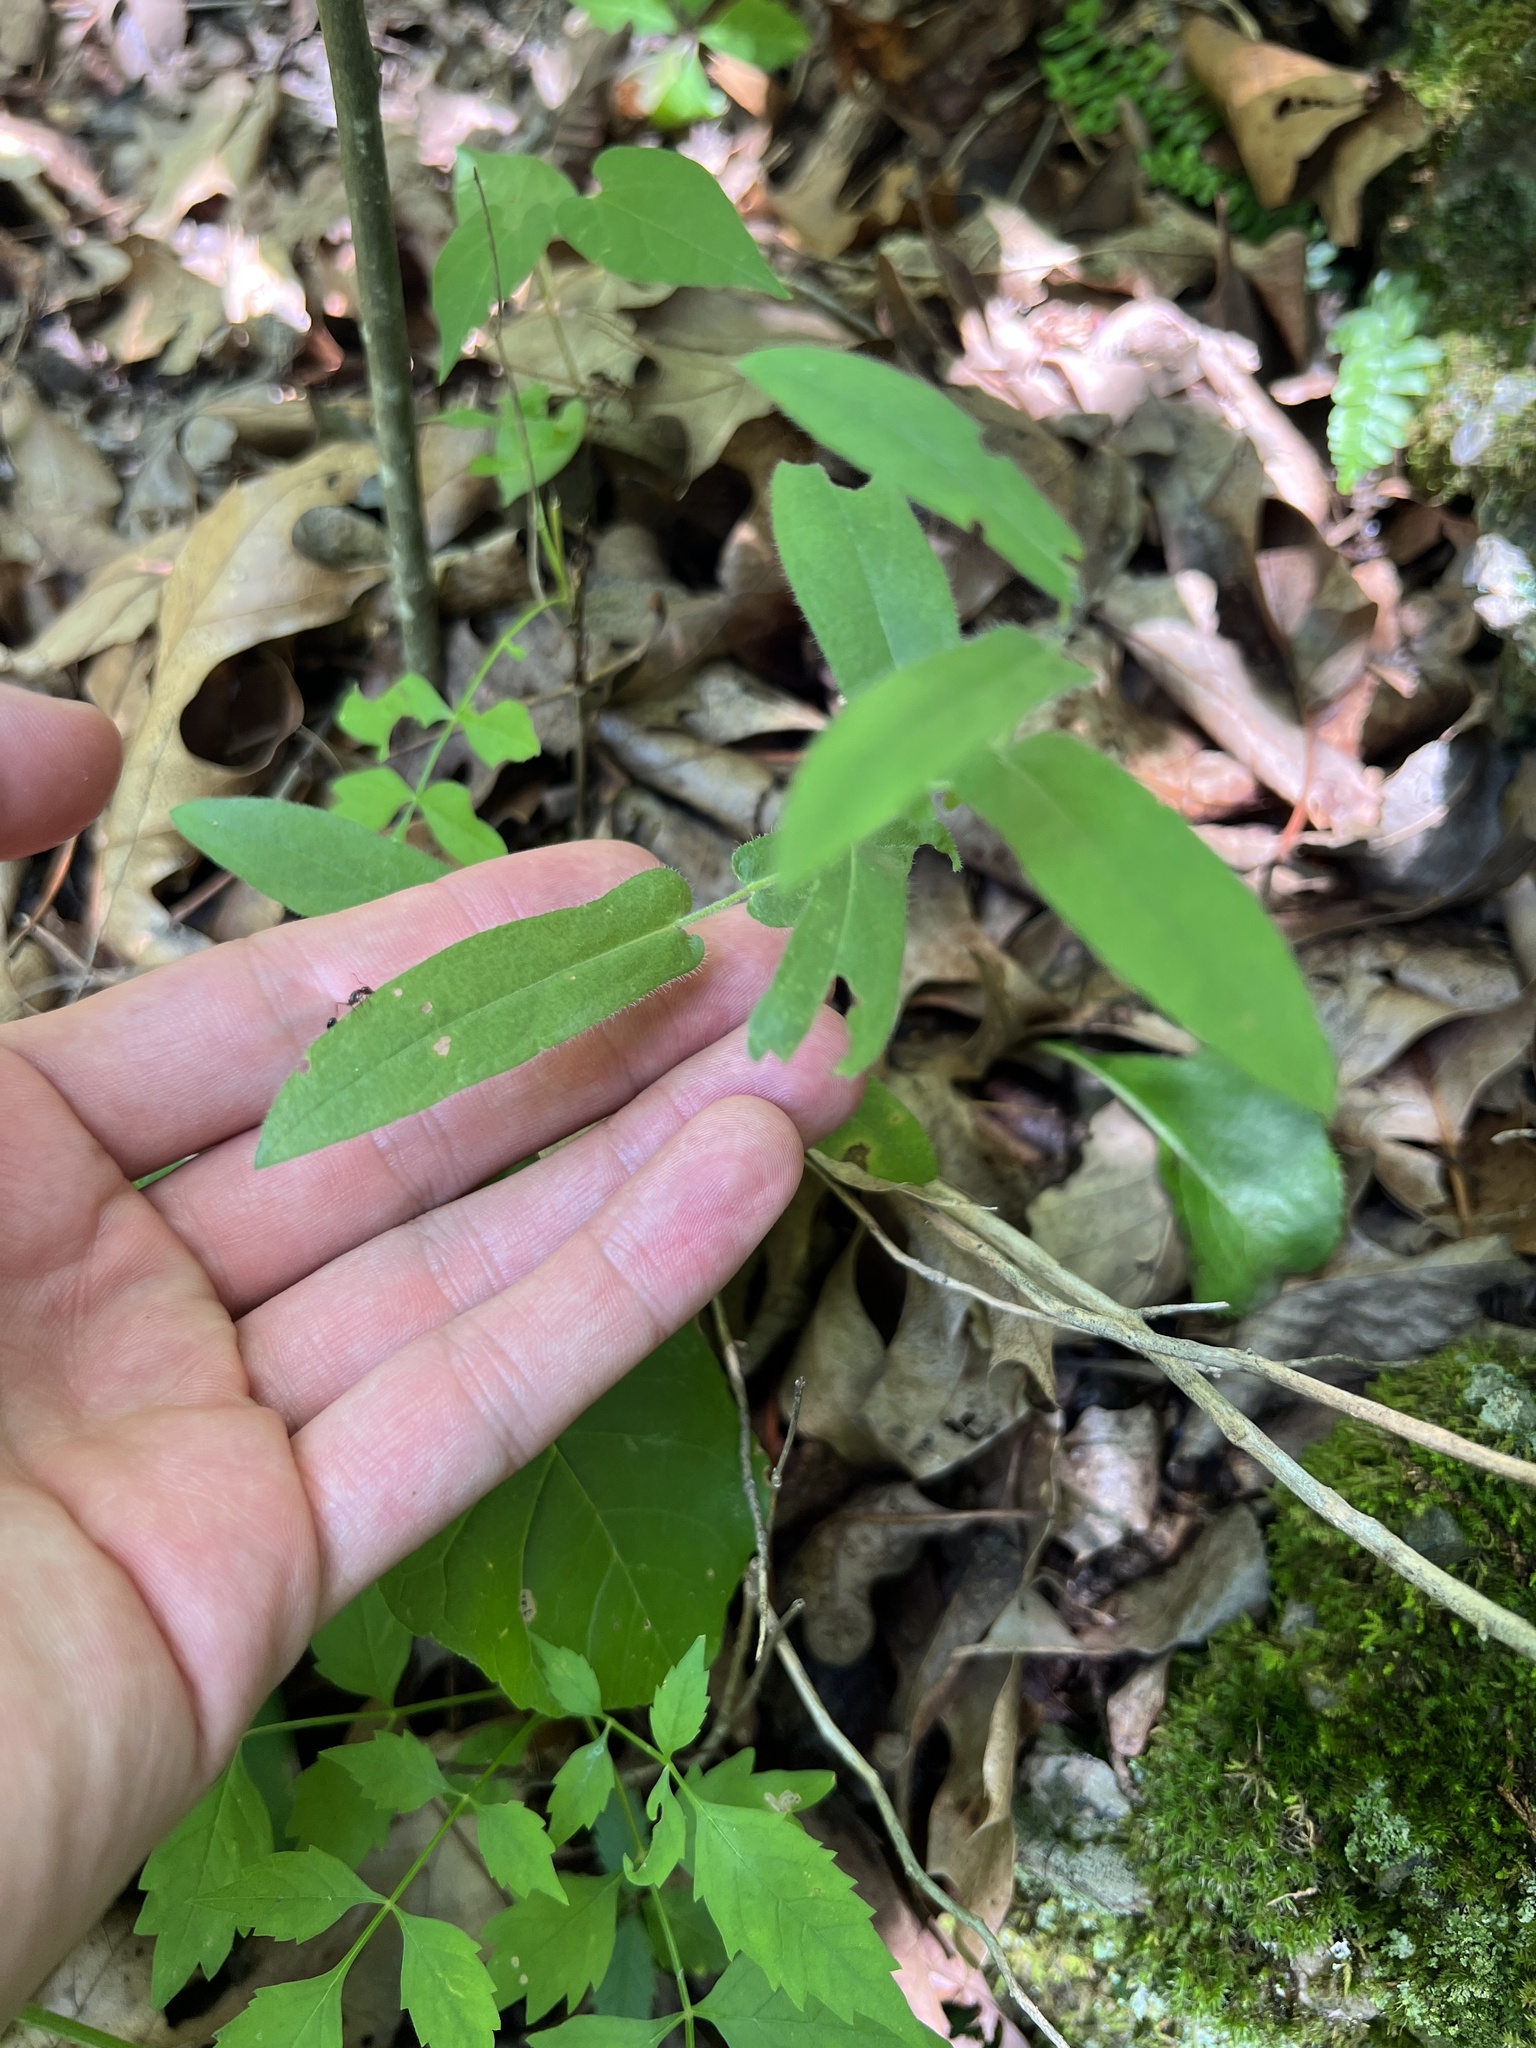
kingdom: Plantae
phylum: Tracheophyta
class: Magnoliopsida
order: Asterales
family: Asteraceae
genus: Symphyotrichum
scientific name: Symphyotrichum patens
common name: Late purple aster
